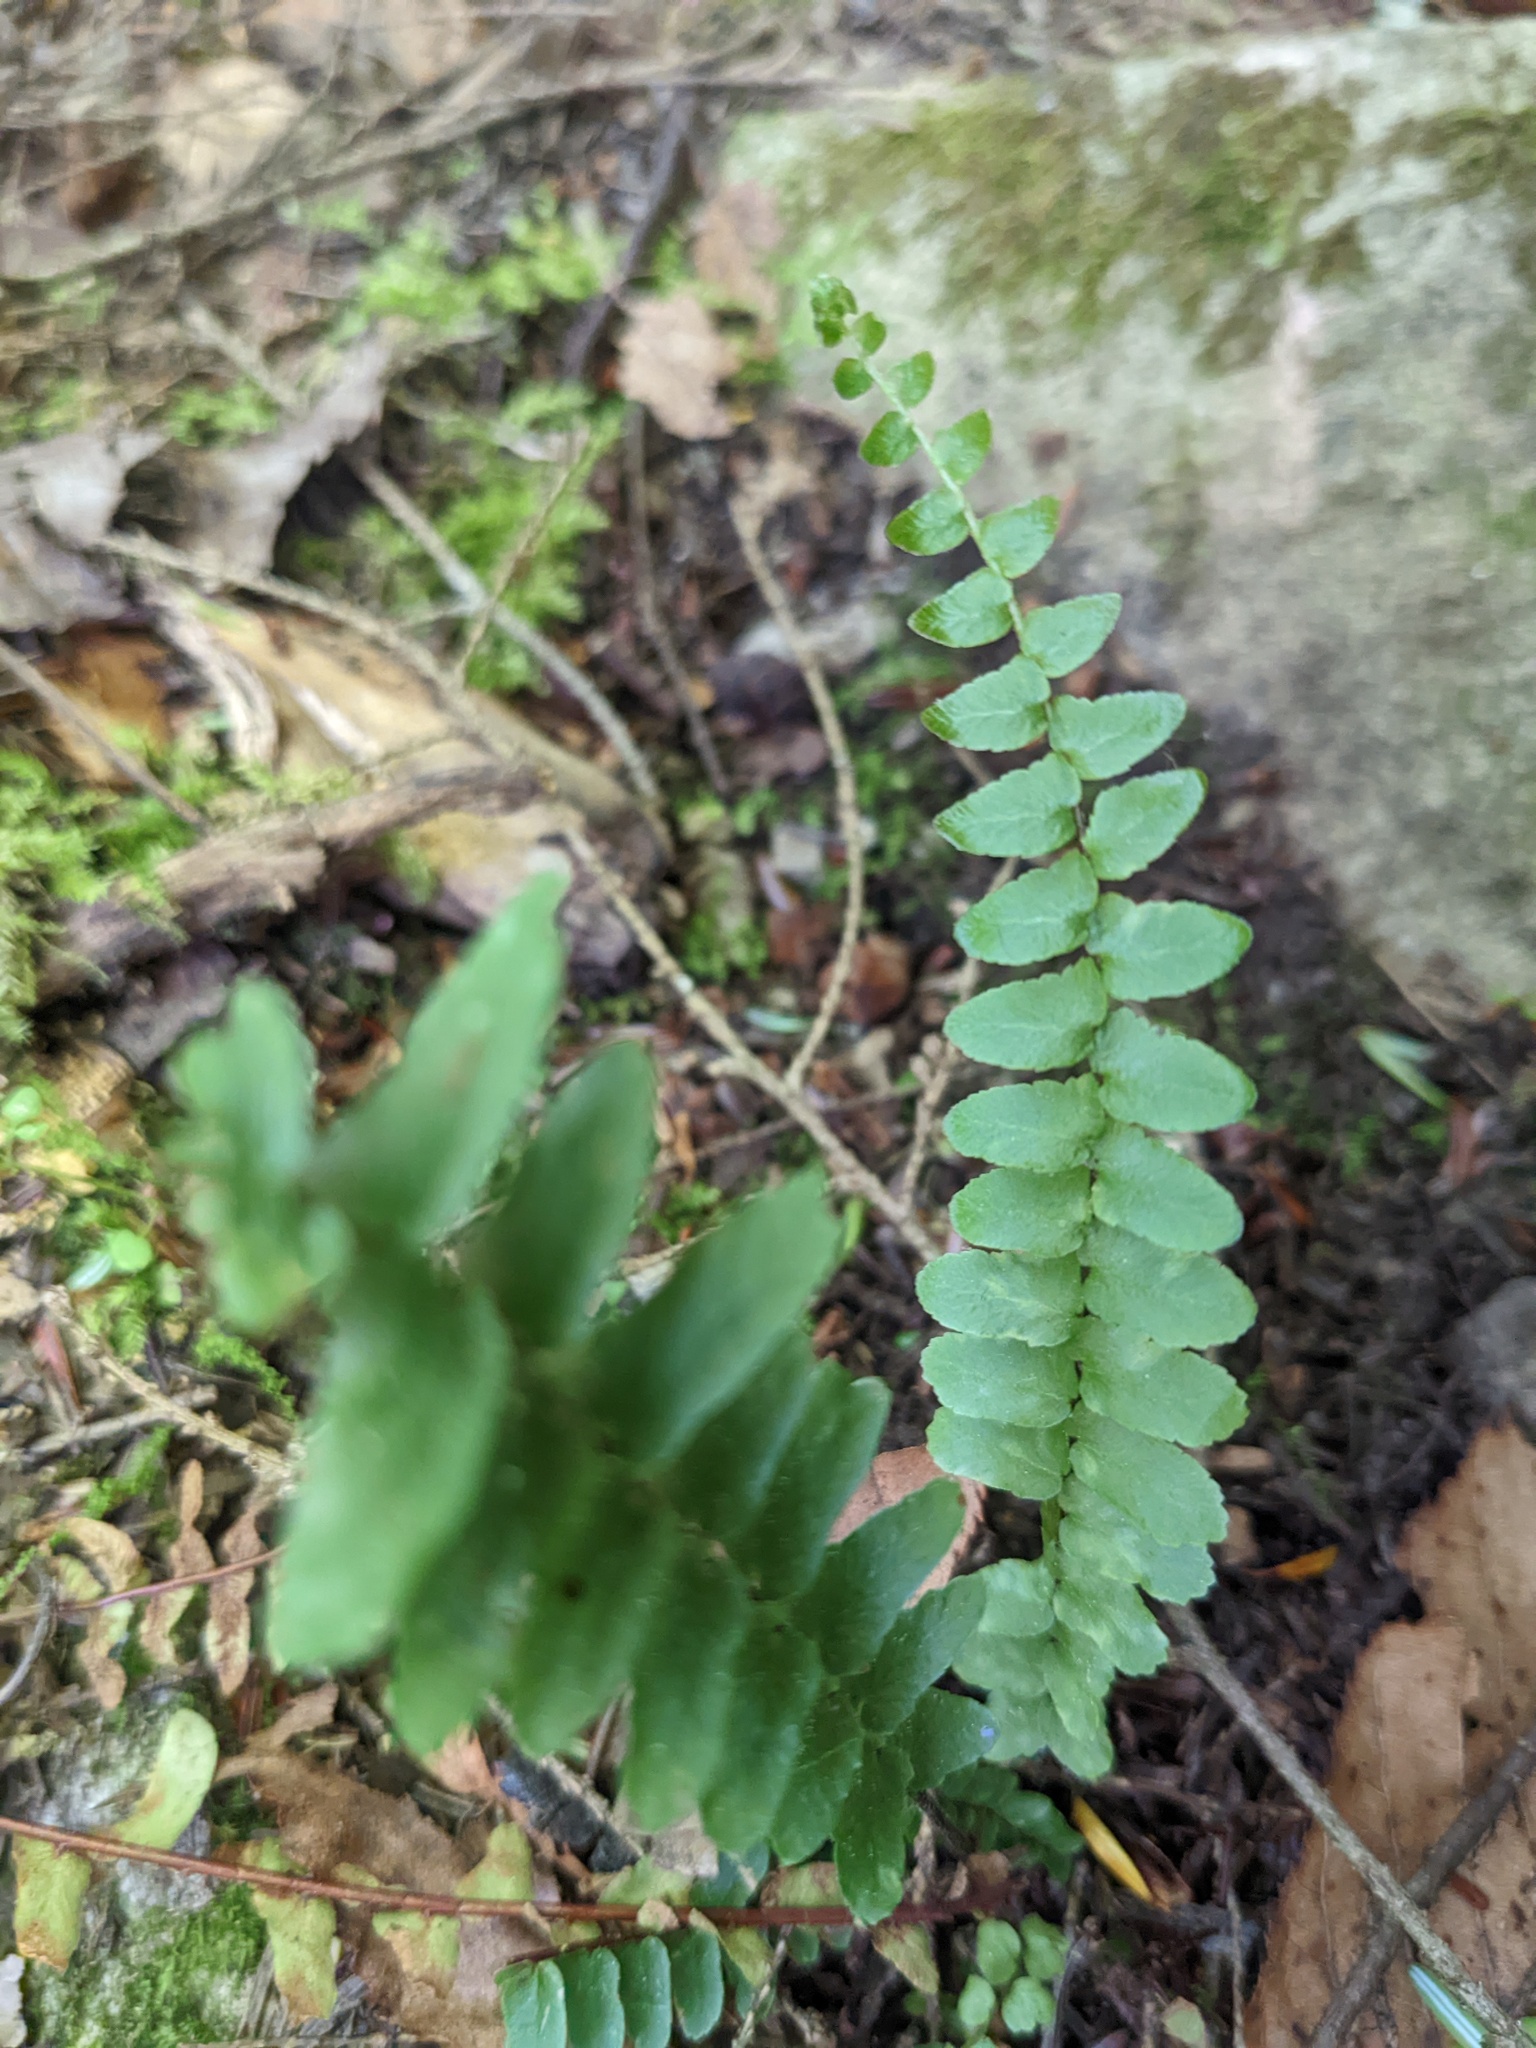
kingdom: Plantae
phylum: Tracheophyta
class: Polypodiopsida
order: Polypodiales
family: Aspleniaceae
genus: Asplenium
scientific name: Asplenium platyneuron
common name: Ebony spleenwort
